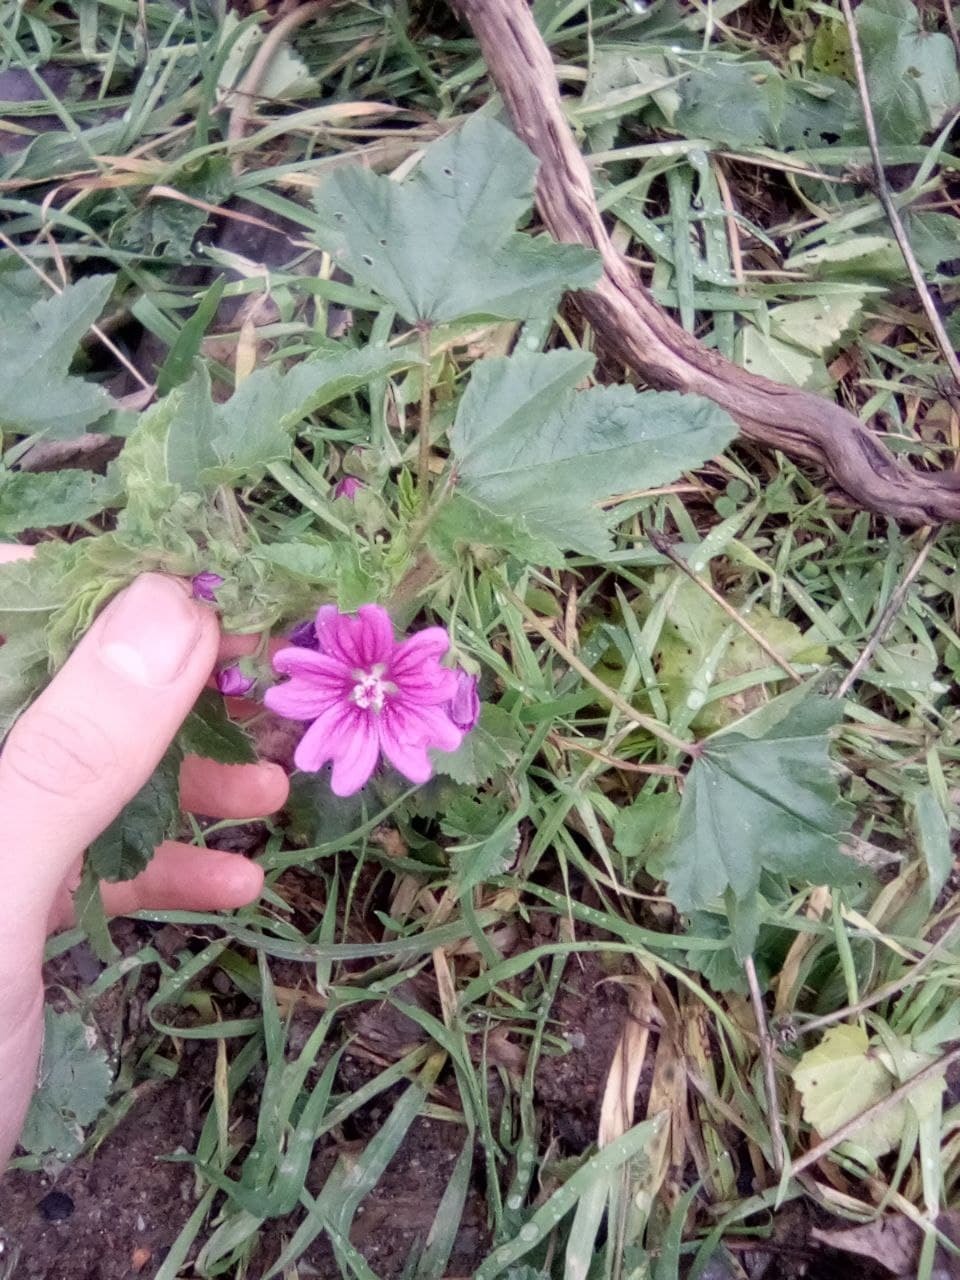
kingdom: Plantae
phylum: Tracheophyta
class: Magnoliopsida
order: Malvales
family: Malvaceae
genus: Malva
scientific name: Malva sylvestris
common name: Common mallow
